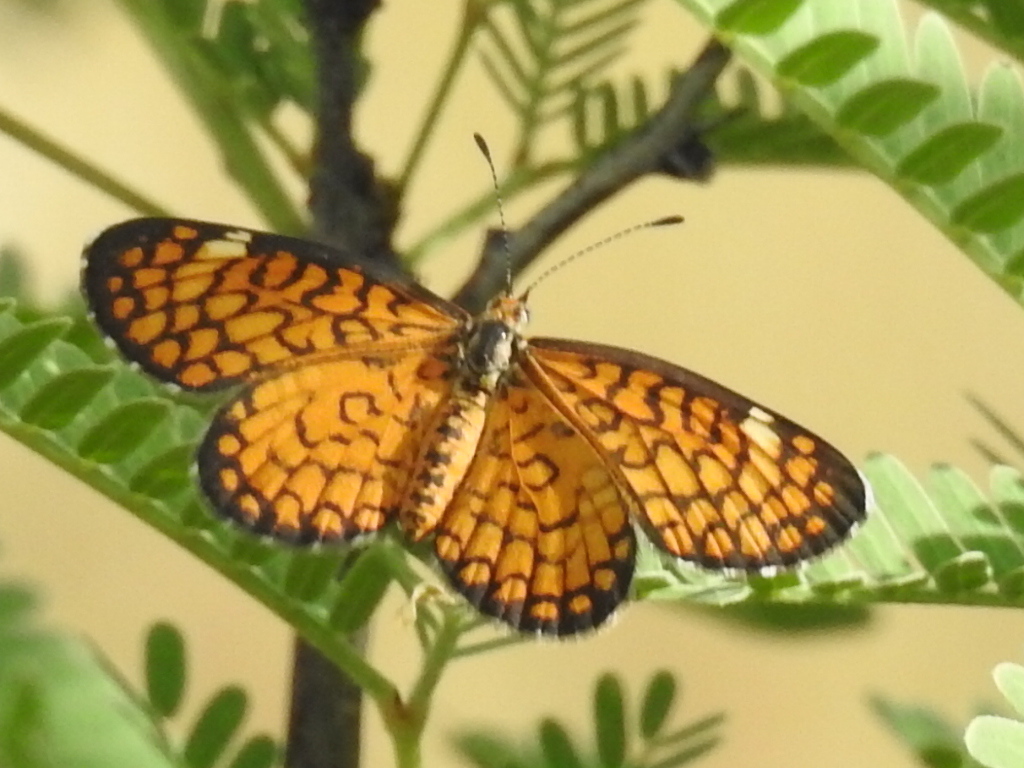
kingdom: Animalia
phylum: Arthropoda
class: Insecta
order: Lepidoptera
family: Nymphalidae
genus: Dymasia
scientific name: Dymasia dymas
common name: Tiny checkerspot
